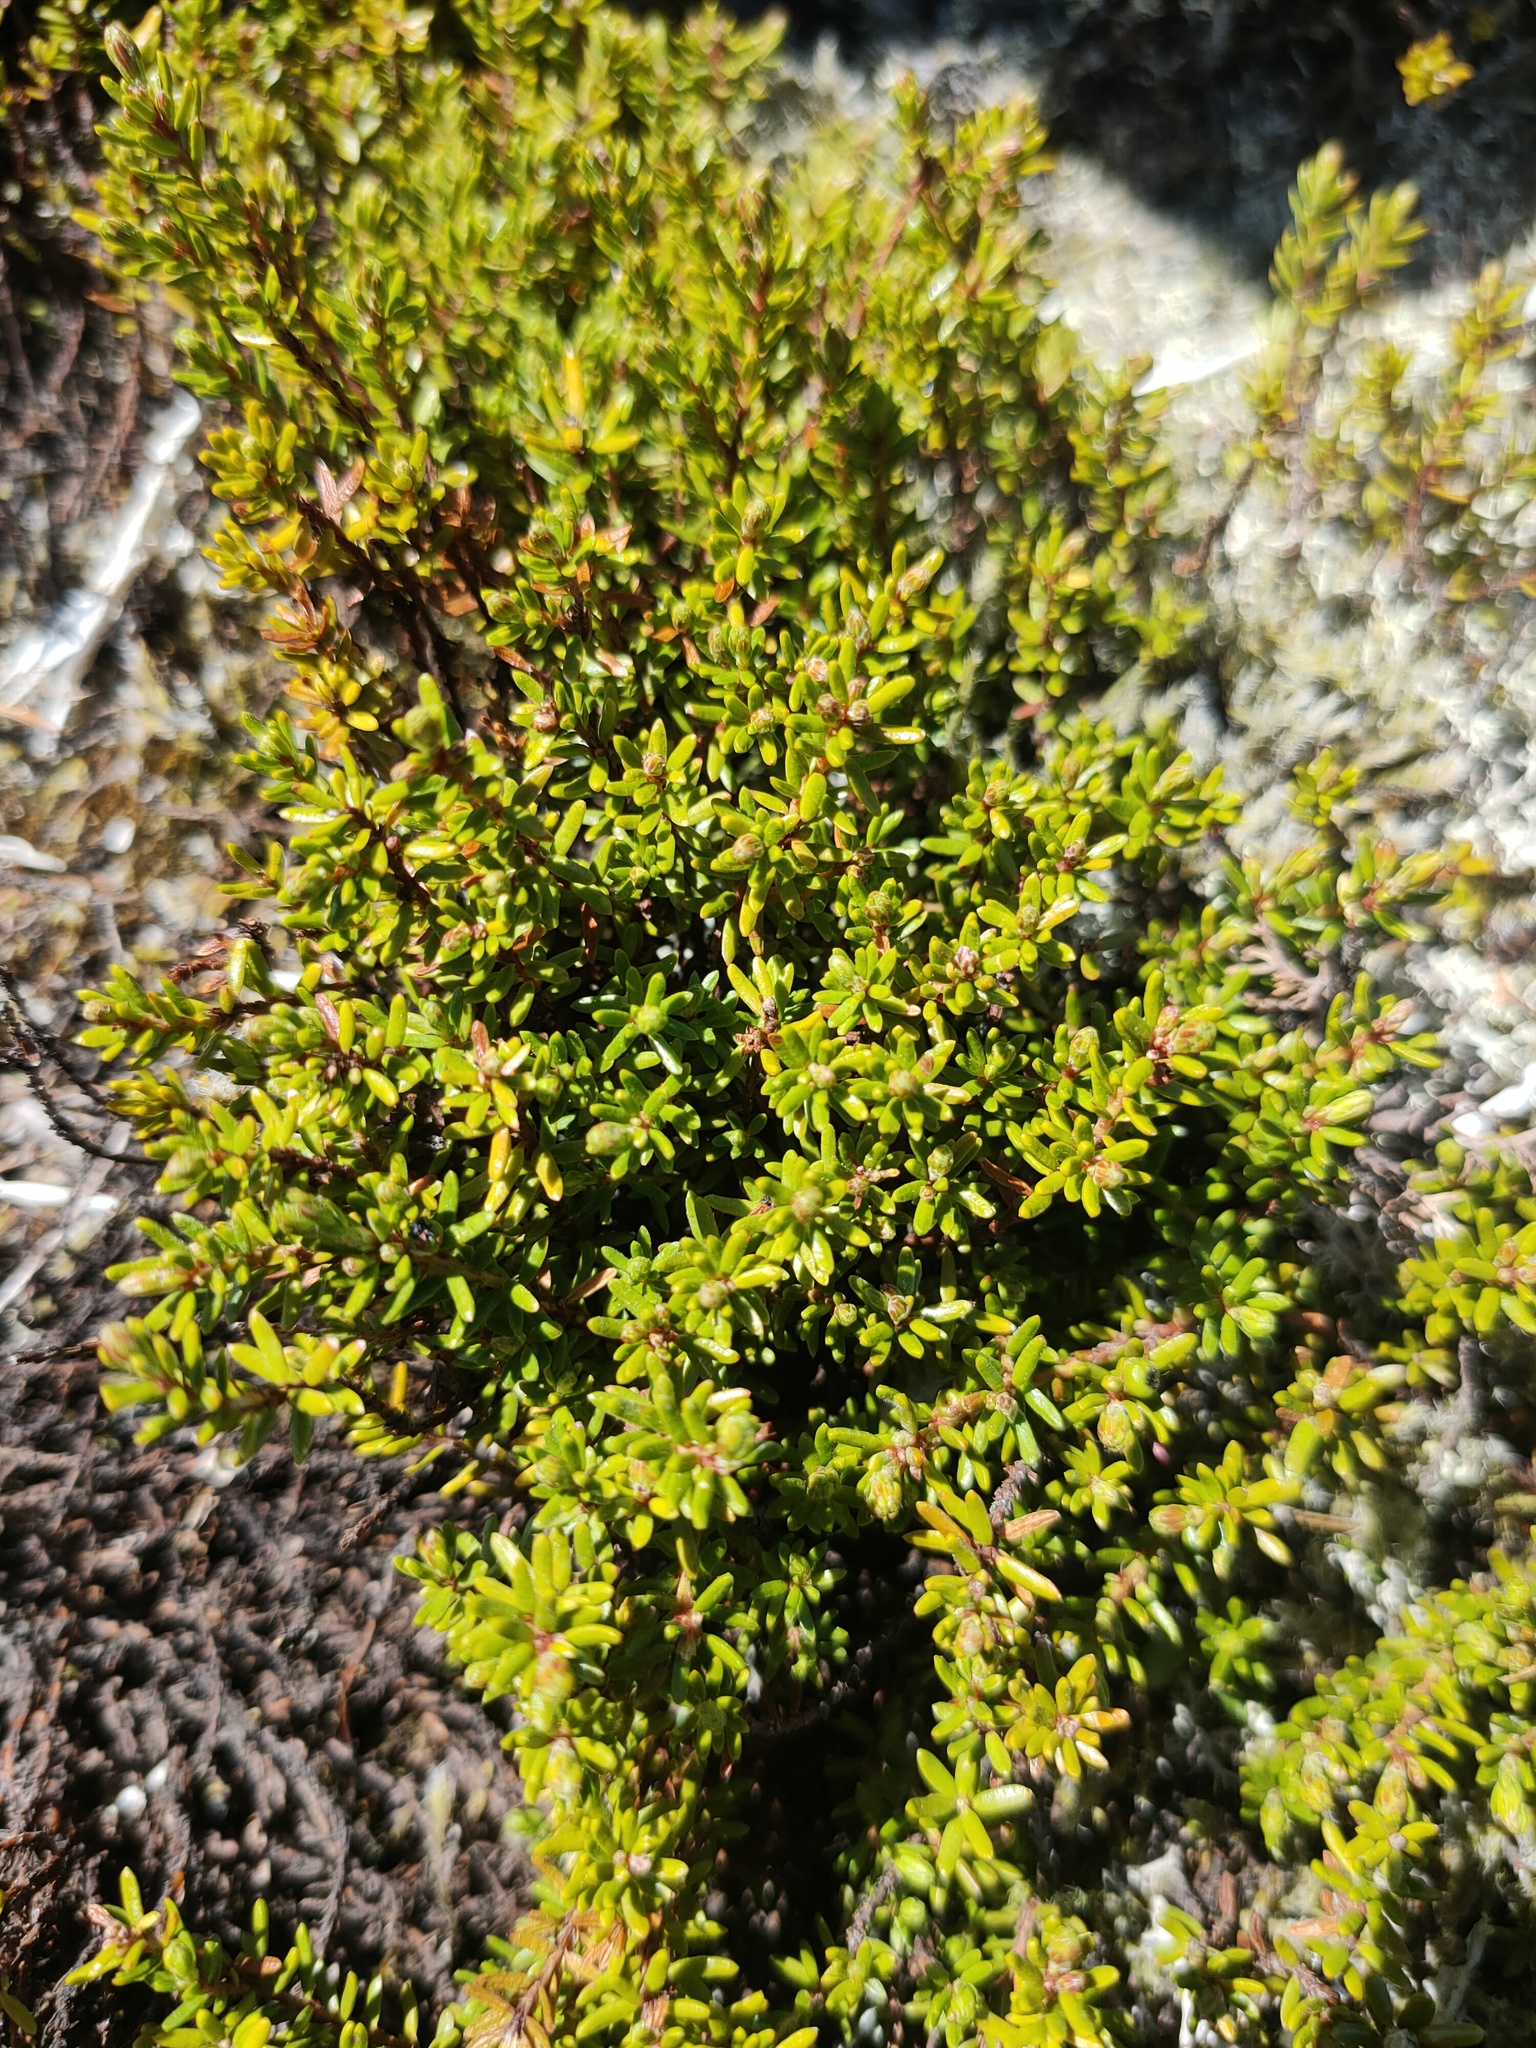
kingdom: Plantae
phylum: Tracheophyta
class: Magnoliopsida
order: Ericales
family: Ericaceae
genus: Empetrum
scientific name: Empetrum nigrum
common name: Black crowberry
